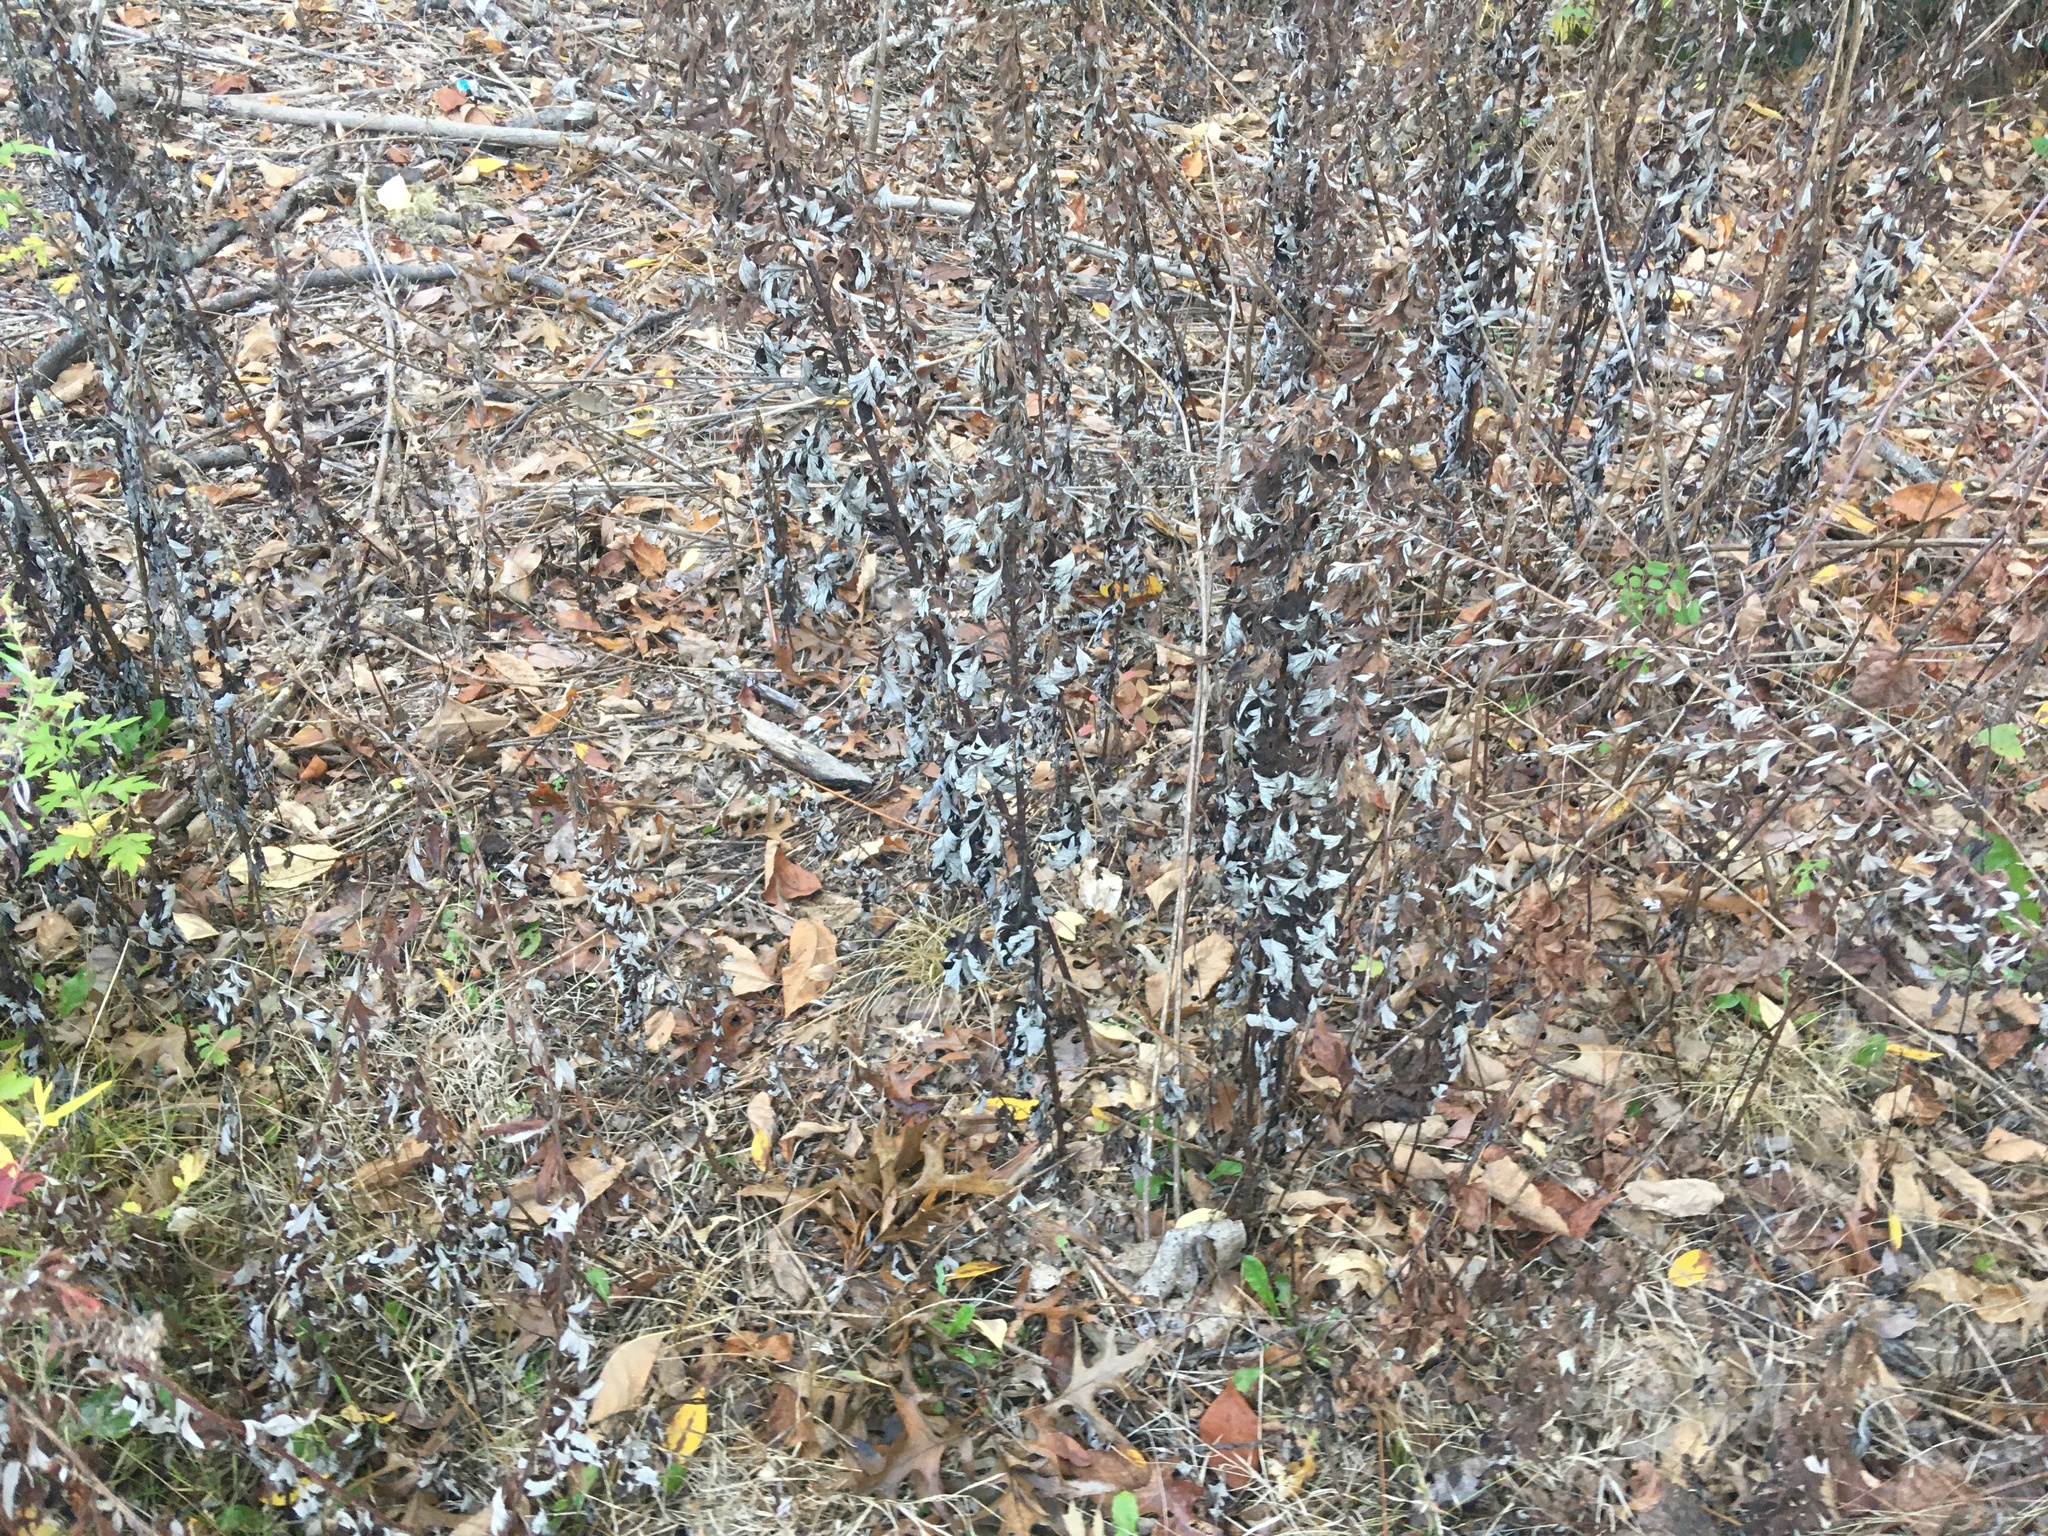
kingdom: Plantae
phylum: Tracheophyta
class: Magnoliopsida
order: Asterales
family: Asteraceae
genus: Artemisia
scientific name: Artemisia vulgaris
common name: Mugwort
